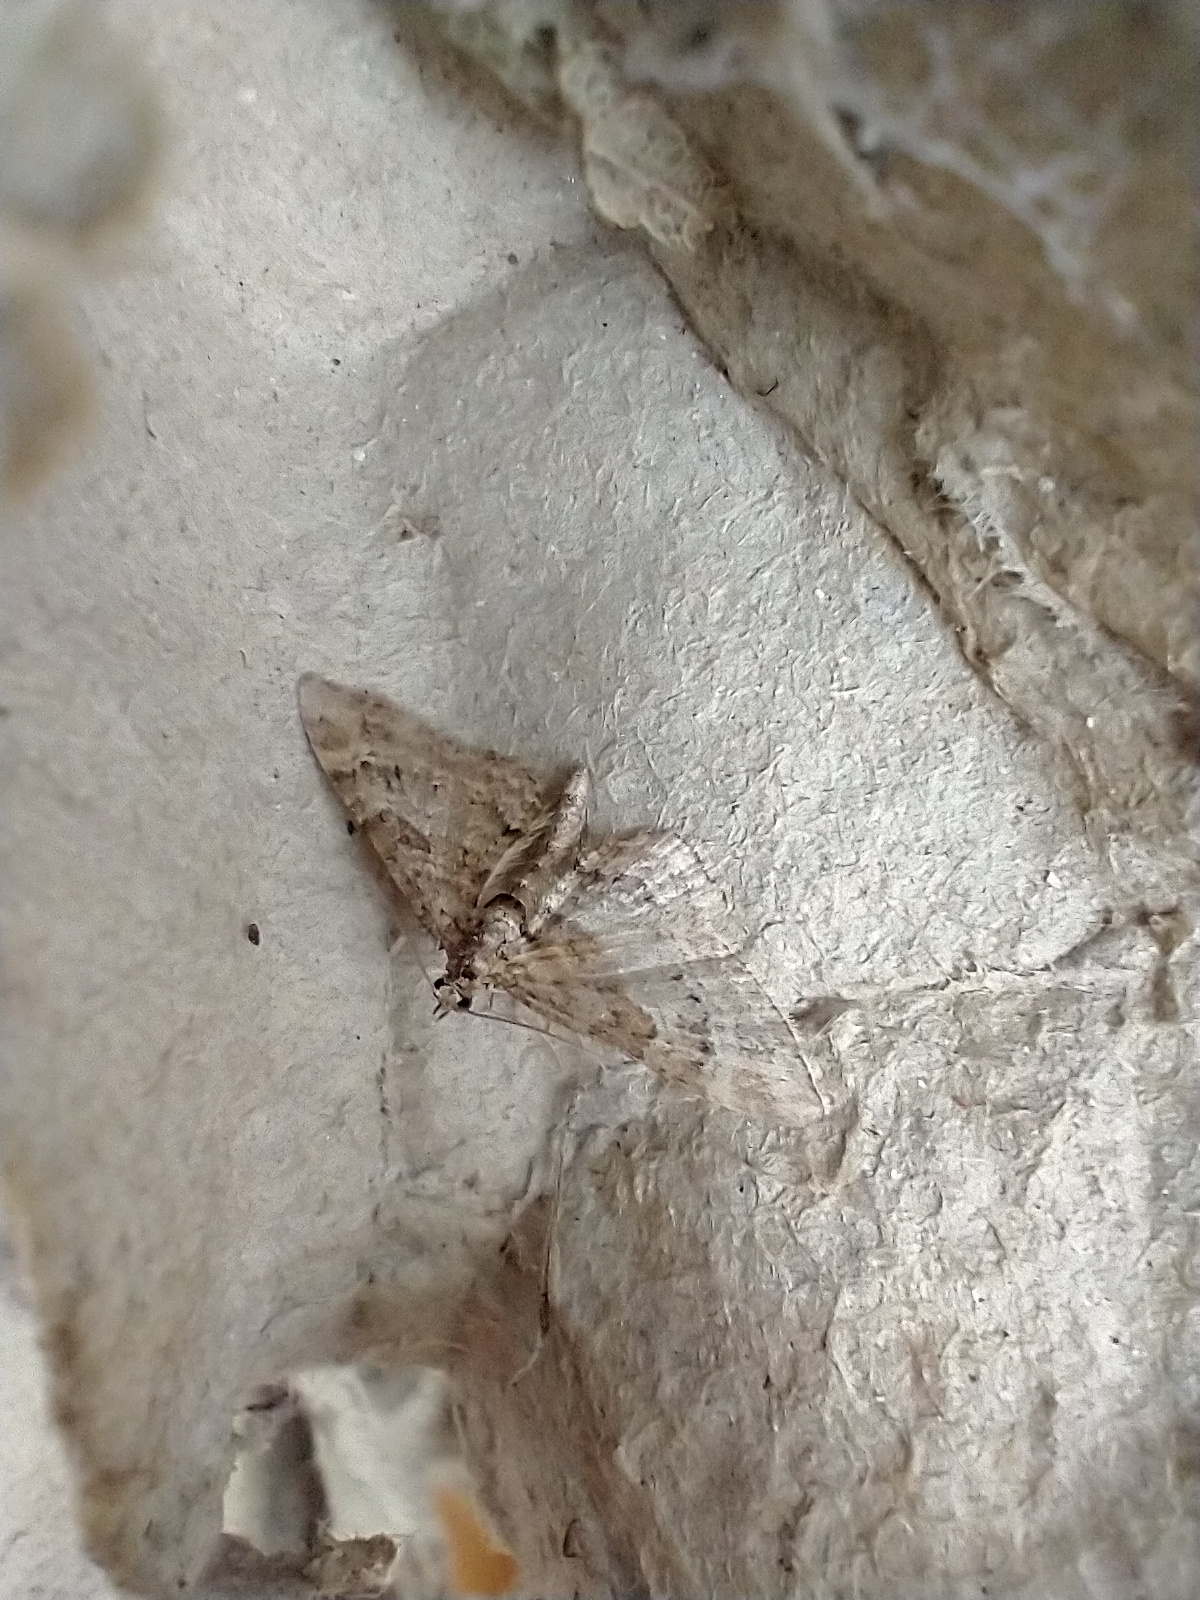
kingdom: Animalia
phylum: Arthropoda
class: Insecta
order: Lepidoptera
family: Geometridae
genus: Gymnoscelis
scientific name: Gymnoscelis rufifasciata
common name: Double-striped pug
